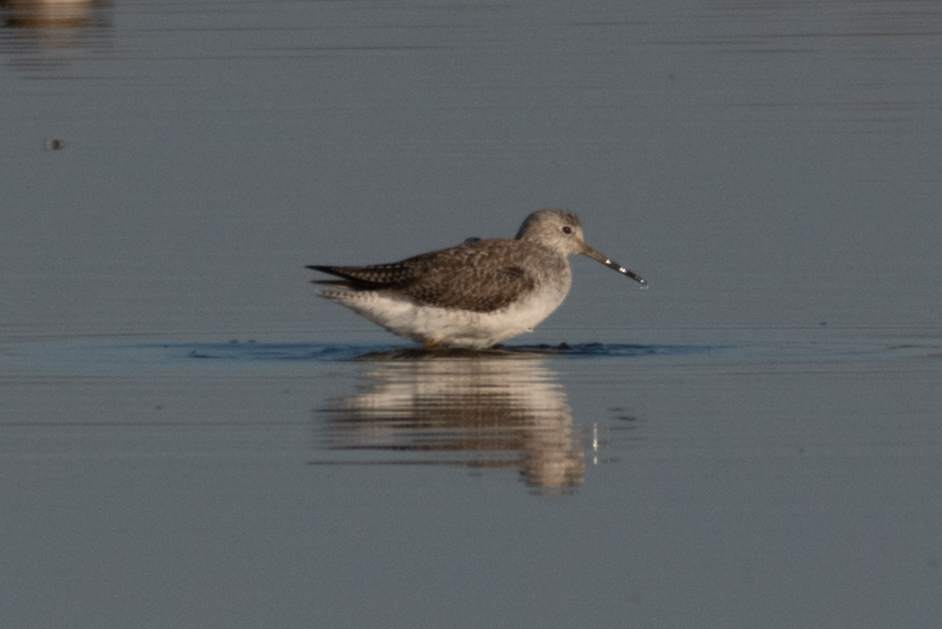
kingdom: Animalia
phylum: Chordata
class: Aves
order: Charadriiformes
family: Scolopacidae
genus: Tringa
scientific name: Tringa melanoleuca
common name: Greater yellowlegs
